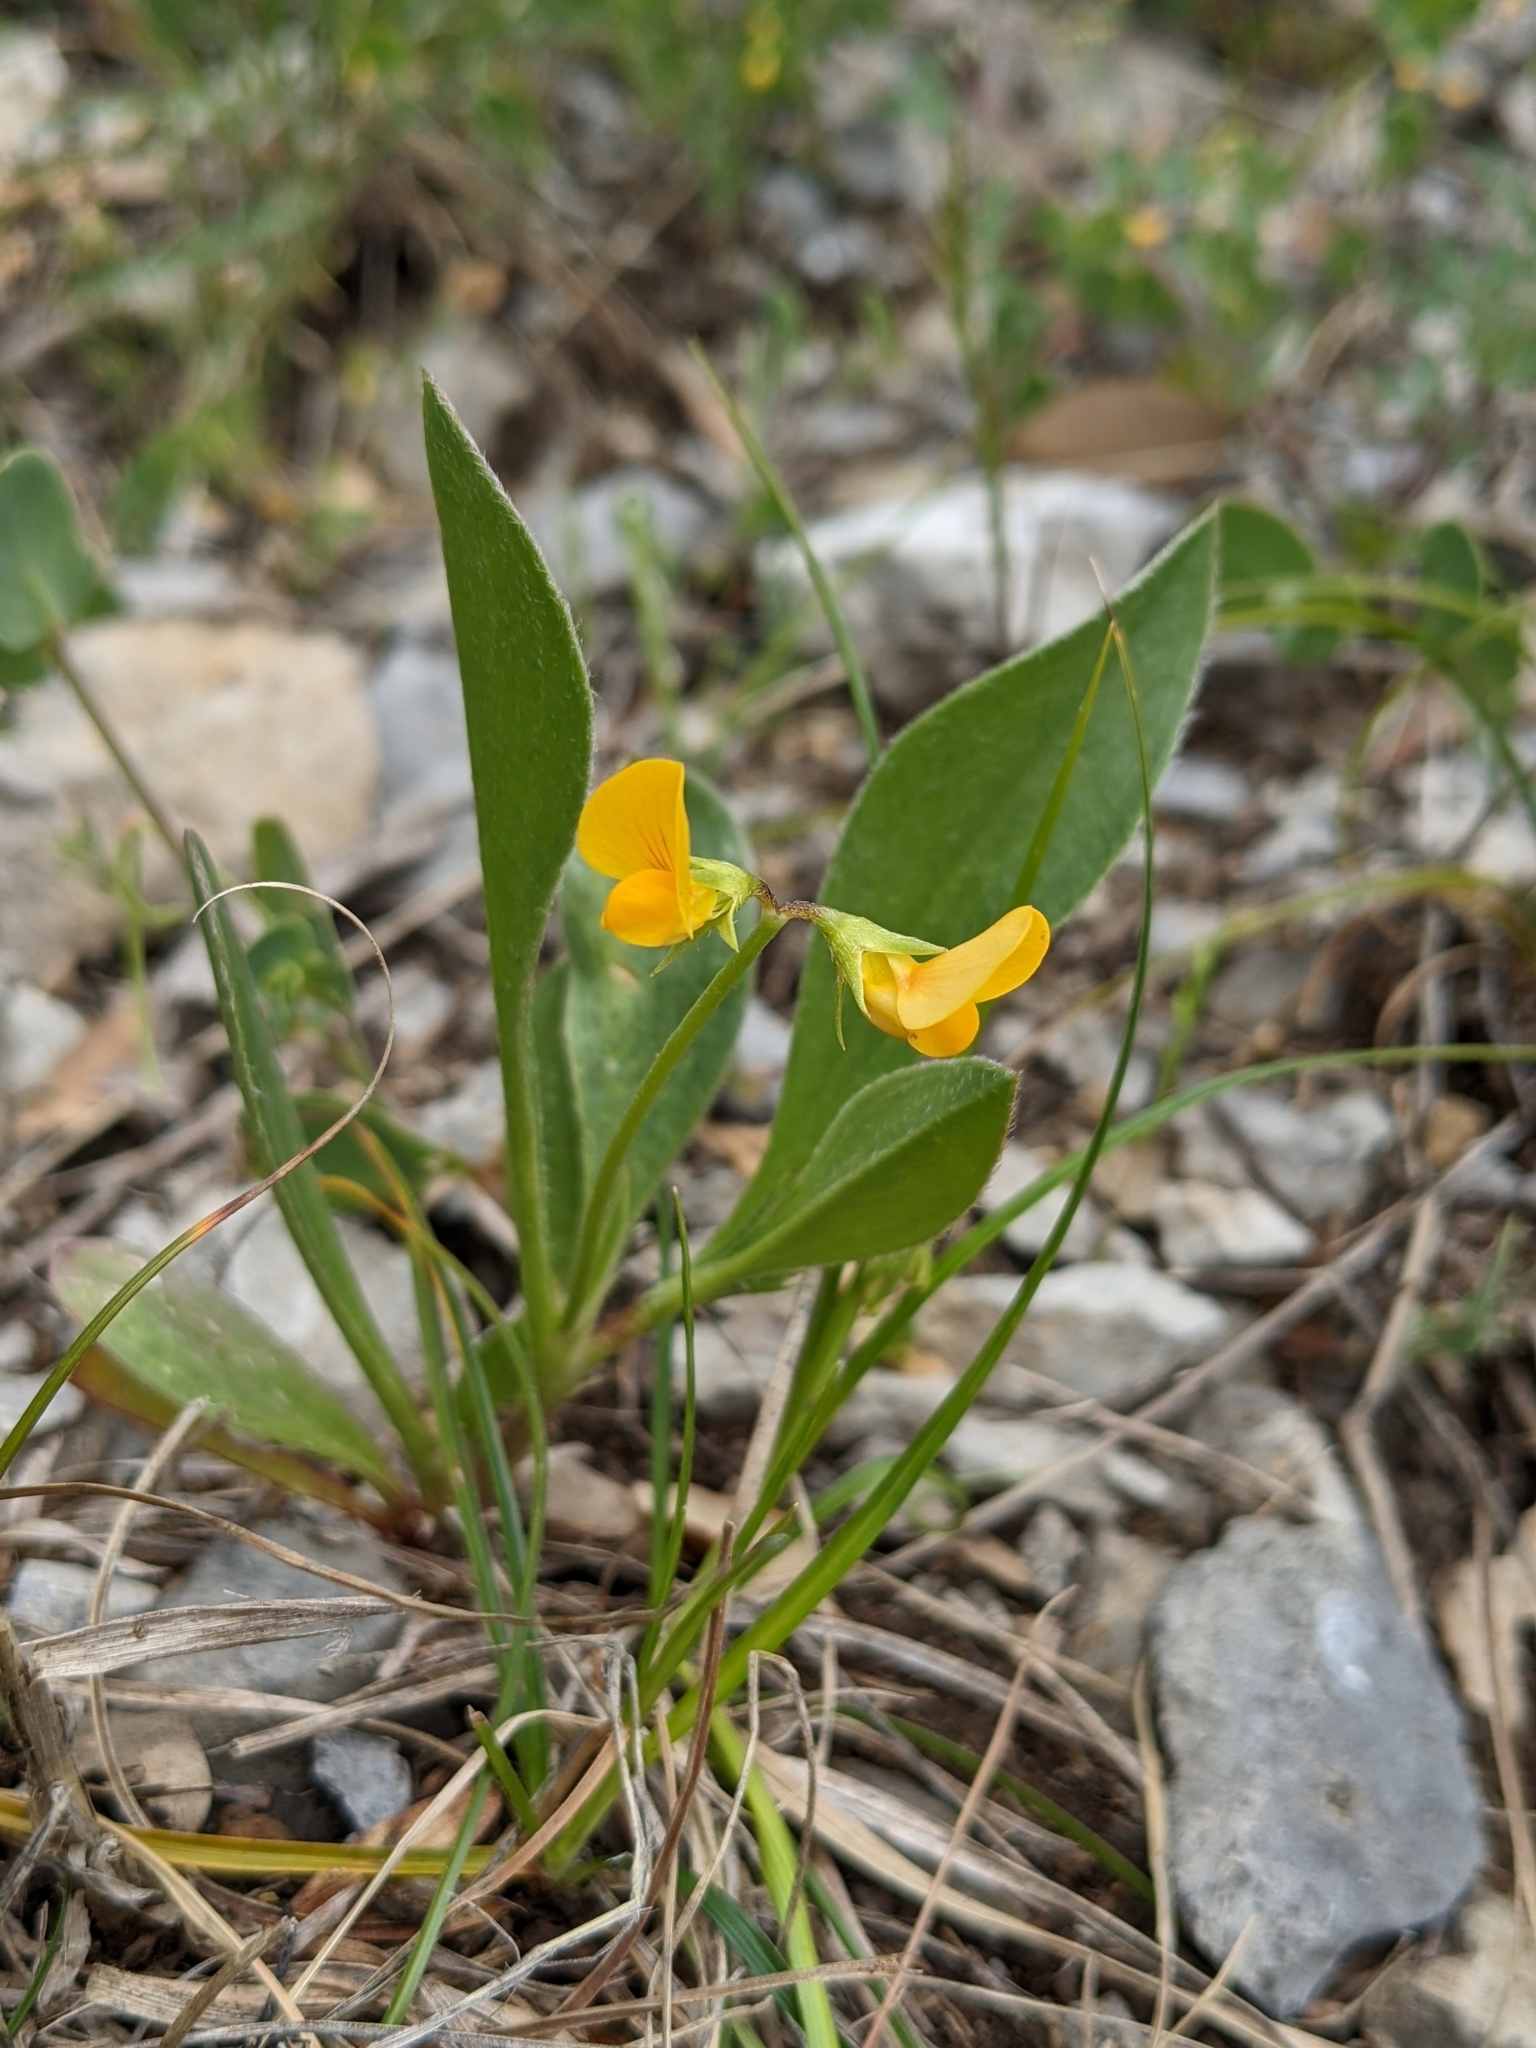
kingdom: Plantae
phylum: Tracheophyta
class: Magnoliopsida
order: Fabales
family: Fabaceae
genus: Scorpiurus
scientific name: Scorpiurus muricatus
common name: Caterpillar-plant
